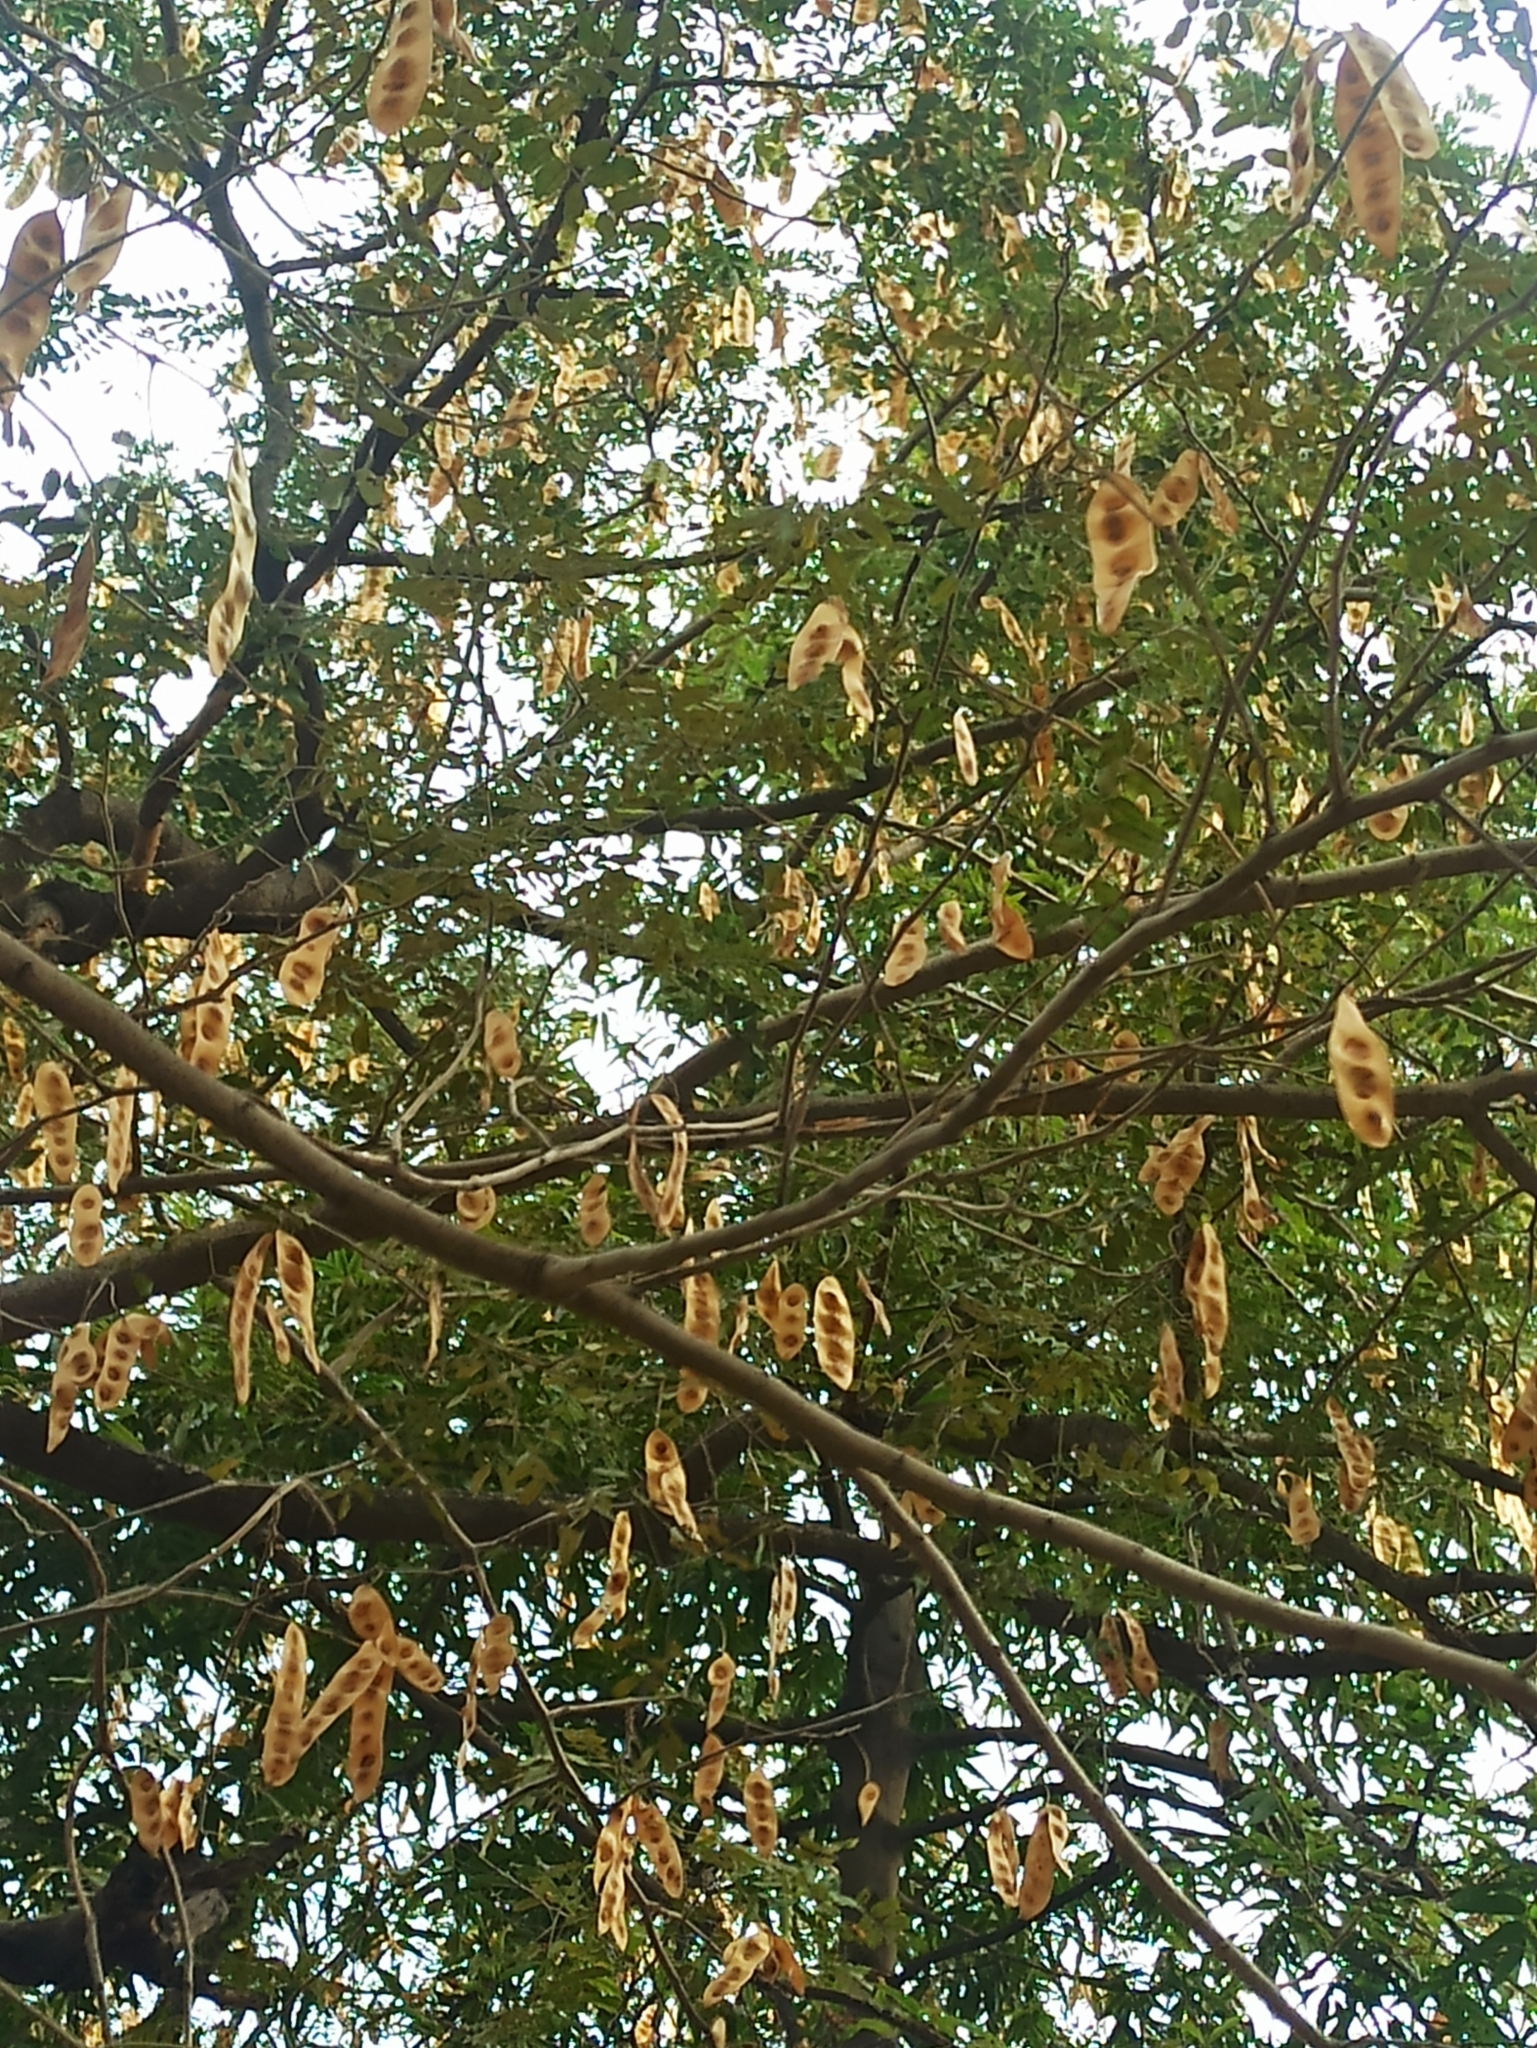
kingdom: Plantae
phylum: Tracheophyta
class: Magnoliopsida
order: Fabales
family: Fabaceae
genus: Albizia
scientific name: Albizia lebbeck
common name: Woman's tongue
